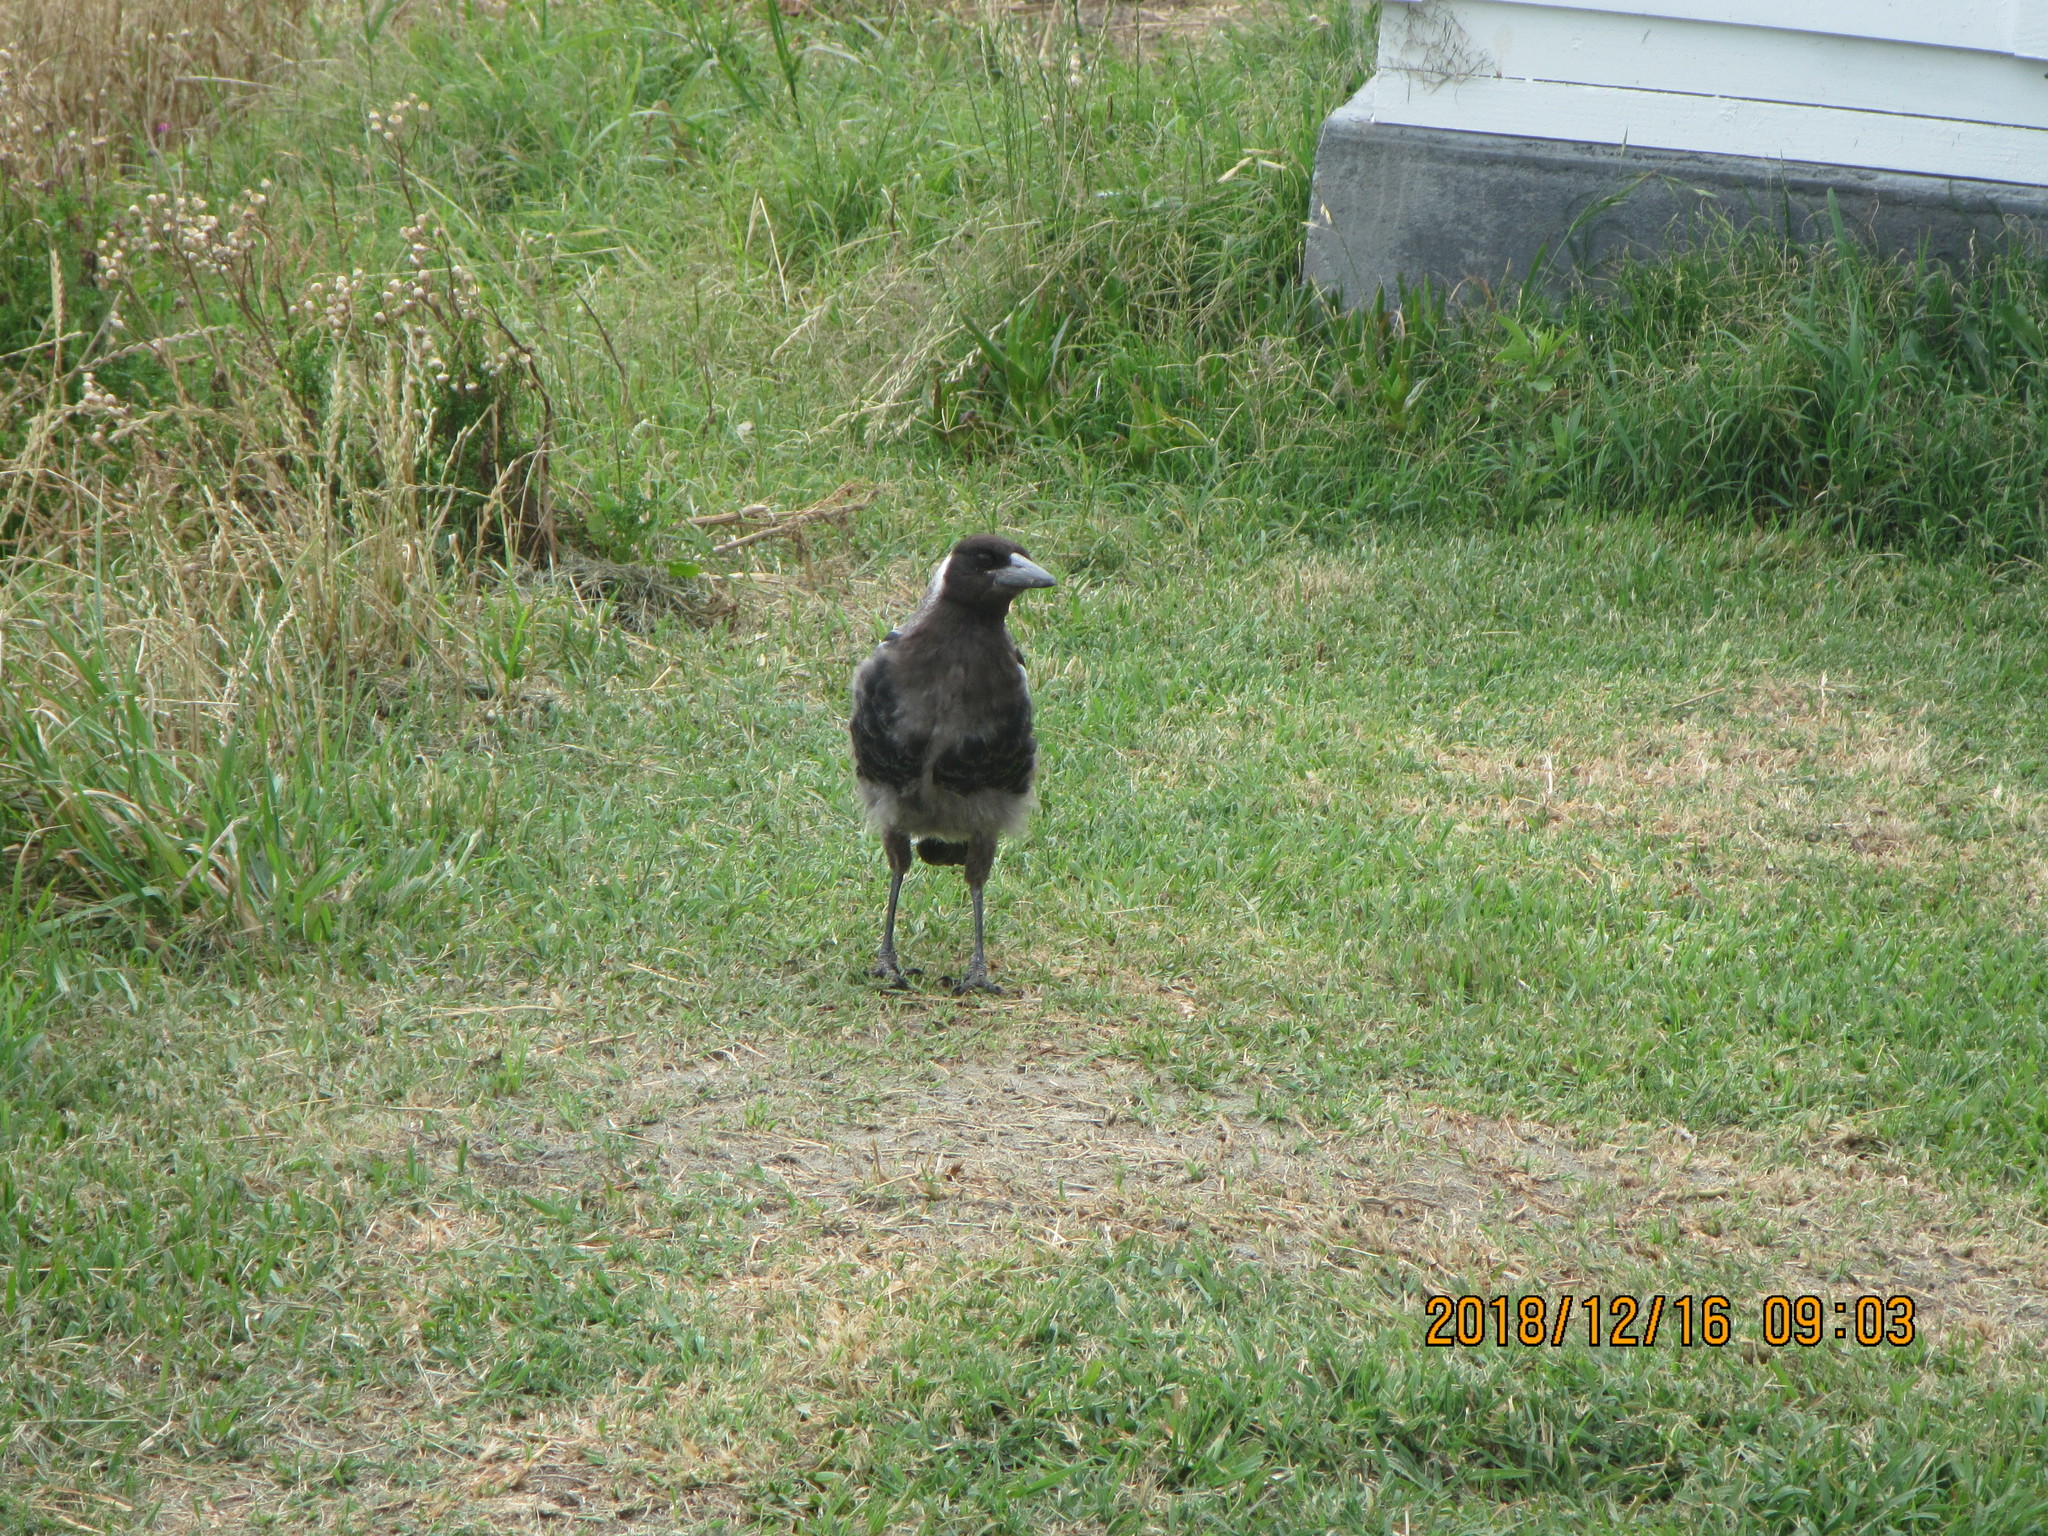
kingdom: Animalia
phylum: Chordata
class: Aves
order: Passeriformes
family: Cracticidae
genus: Gymnorhina
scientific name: Gymnorhina tibicen
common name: Australian magpie
